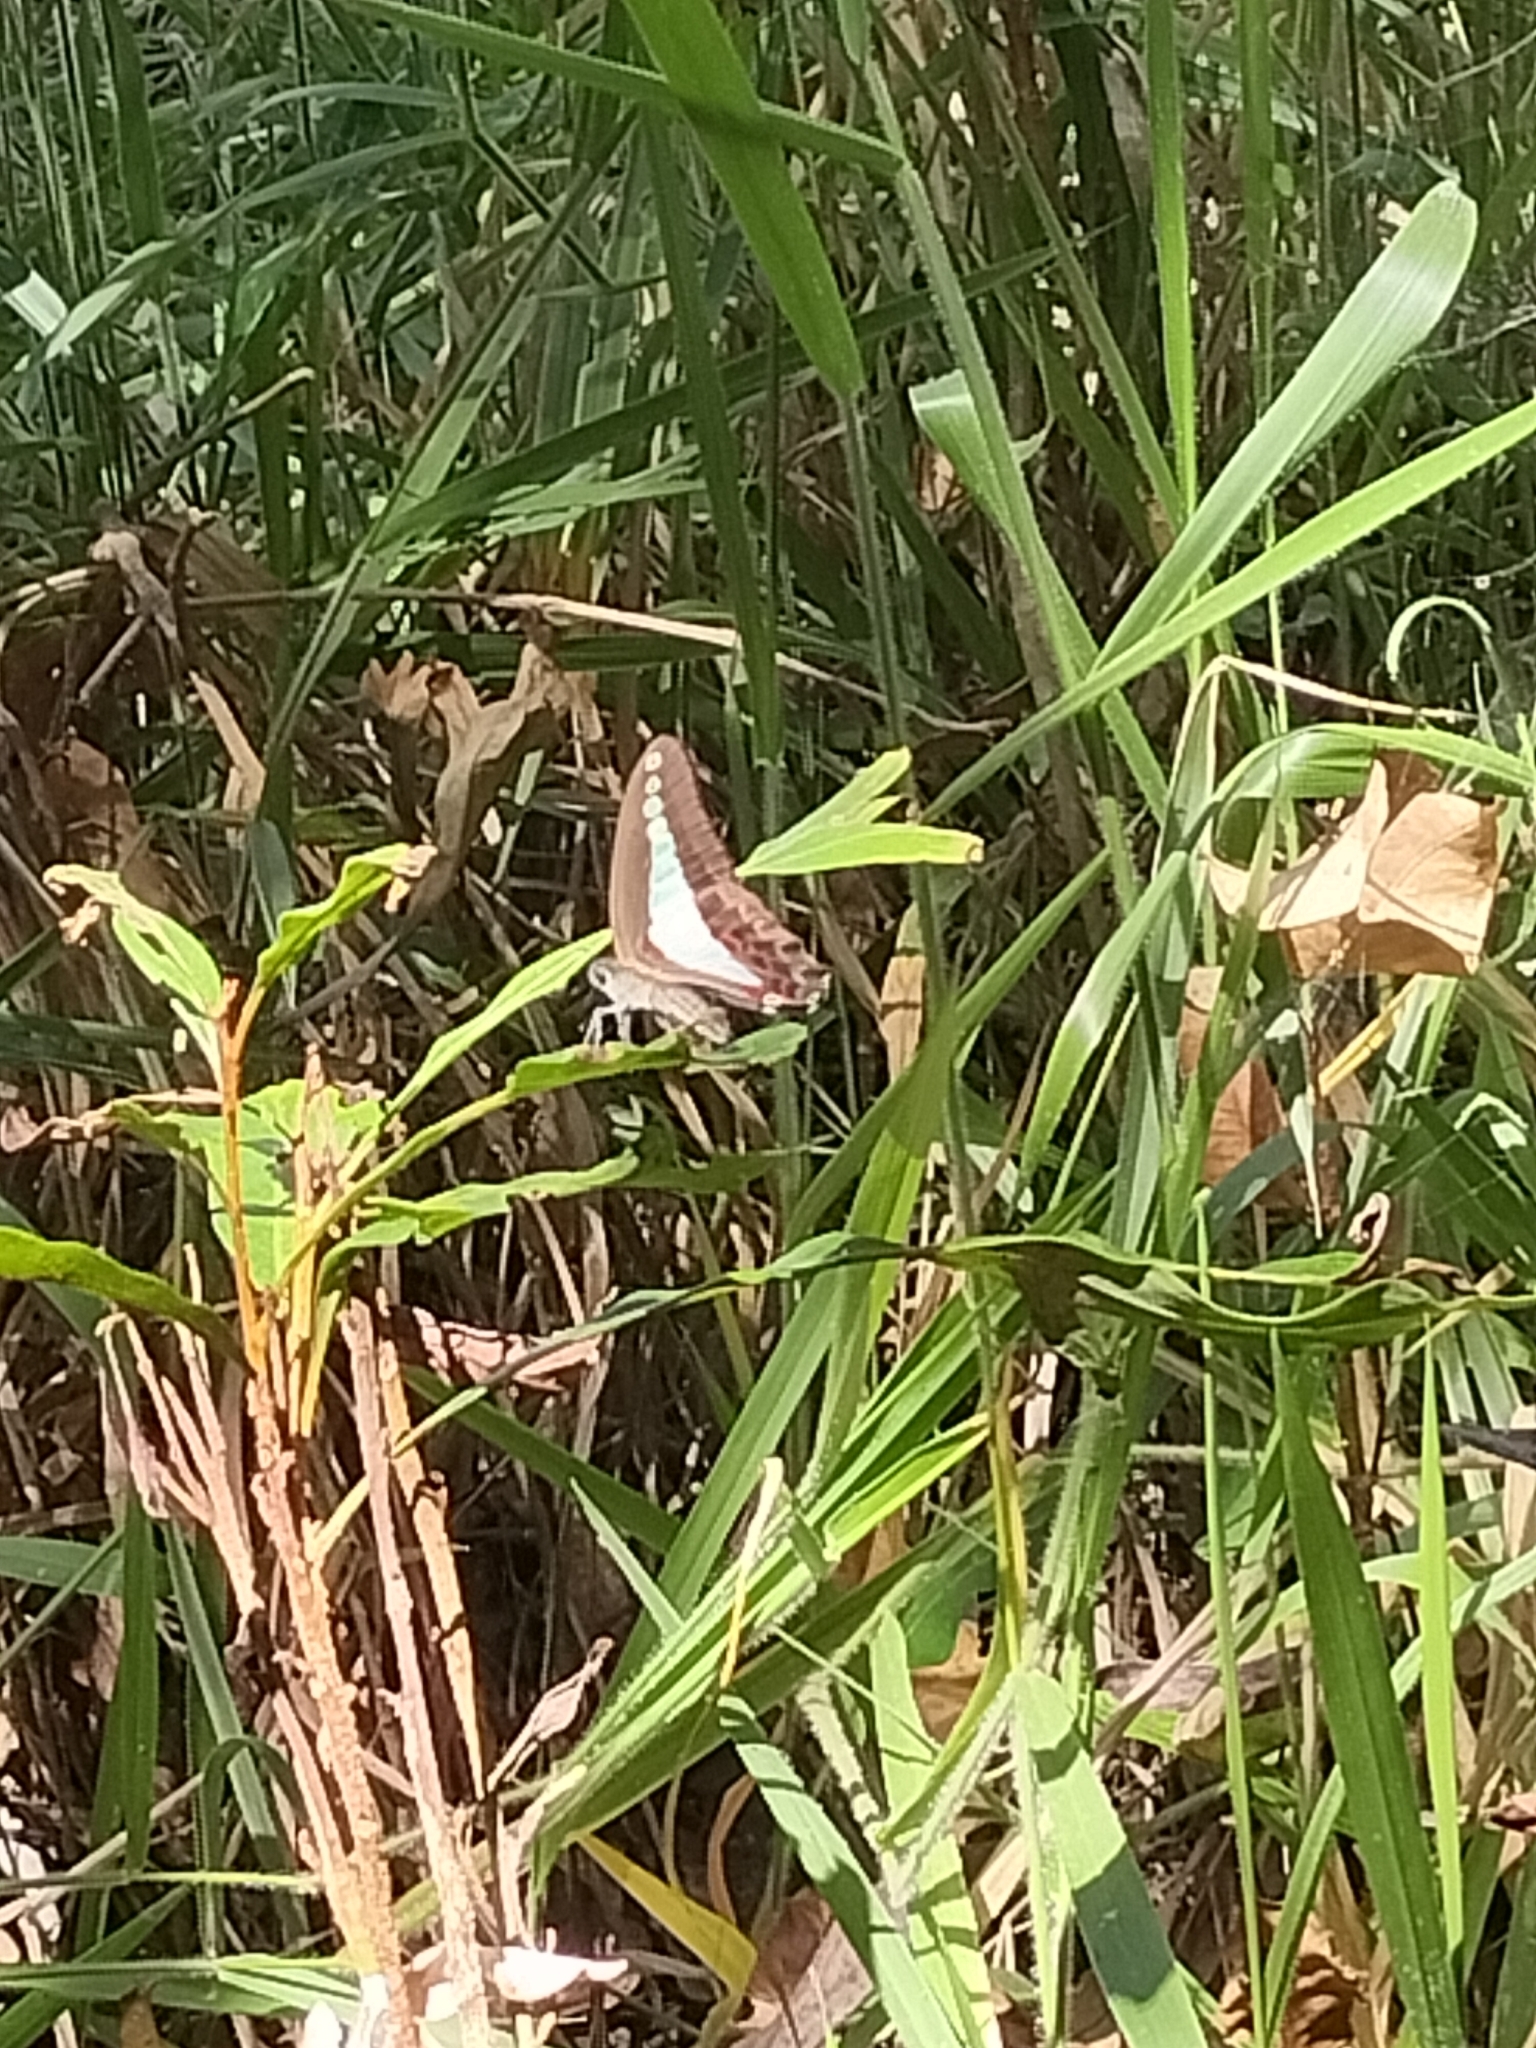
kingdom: Animalia
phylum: Arthropoda
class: Insecta
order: Lepidoptera
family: Papilionidae
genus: Graphium
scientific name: Graphium
